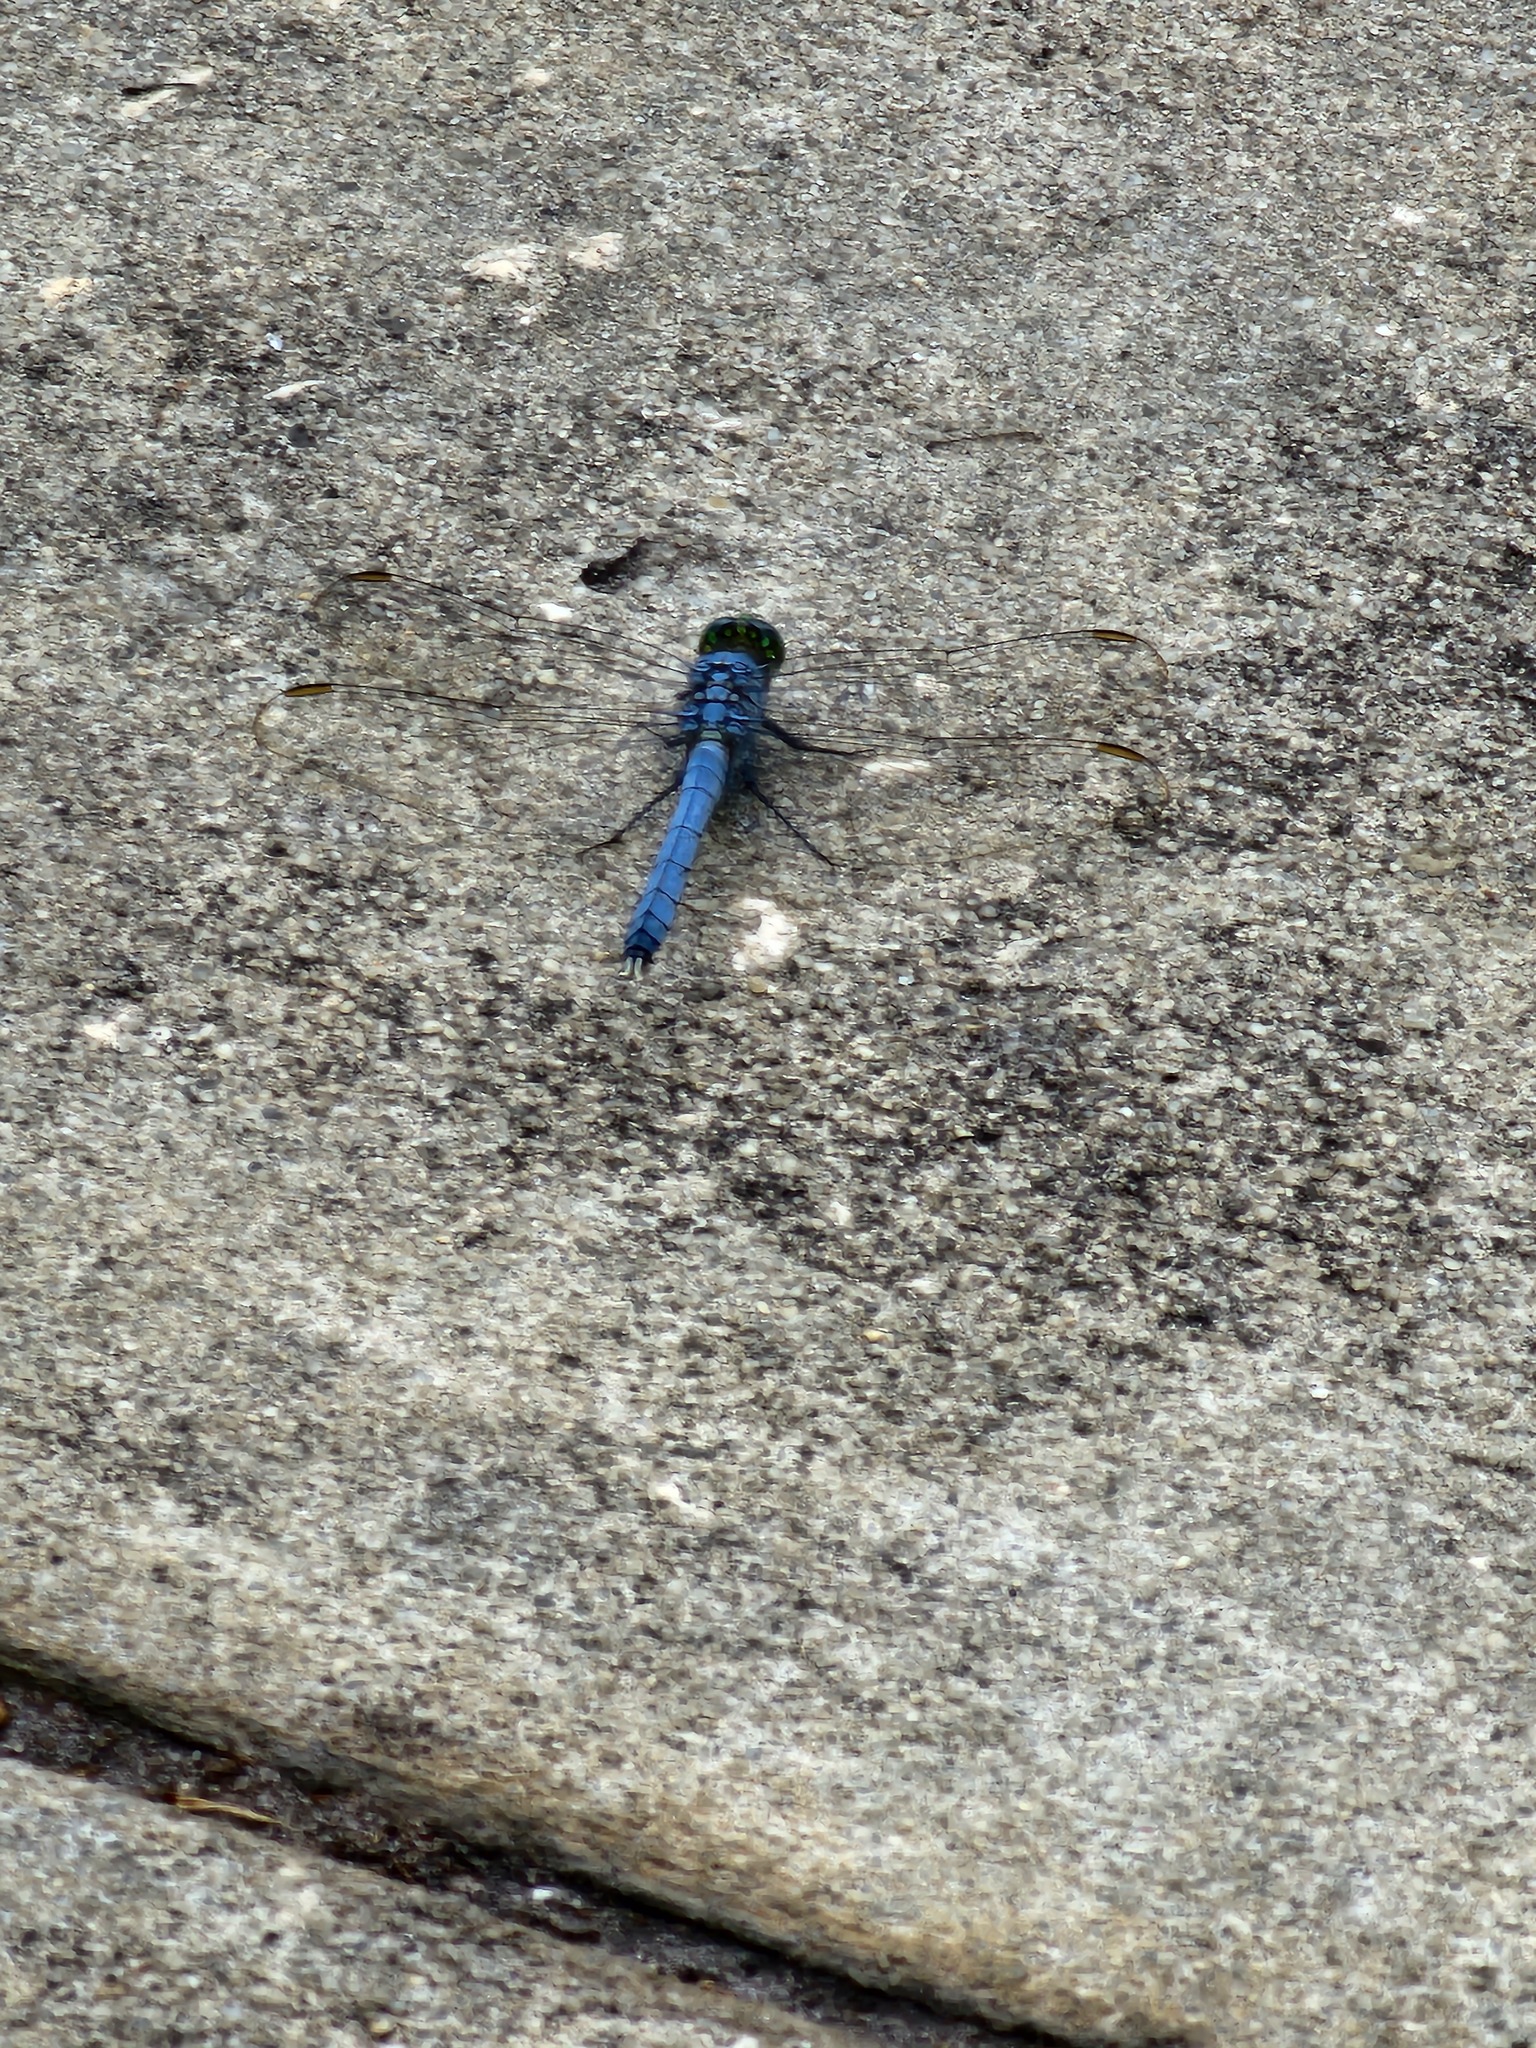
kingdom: Animalia
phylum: Arthropoda
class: Insecta
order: Odonata
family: Libellulidae
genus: Erythemis
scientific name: Erythemis simplicicollis
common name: Eastern pondhawk
